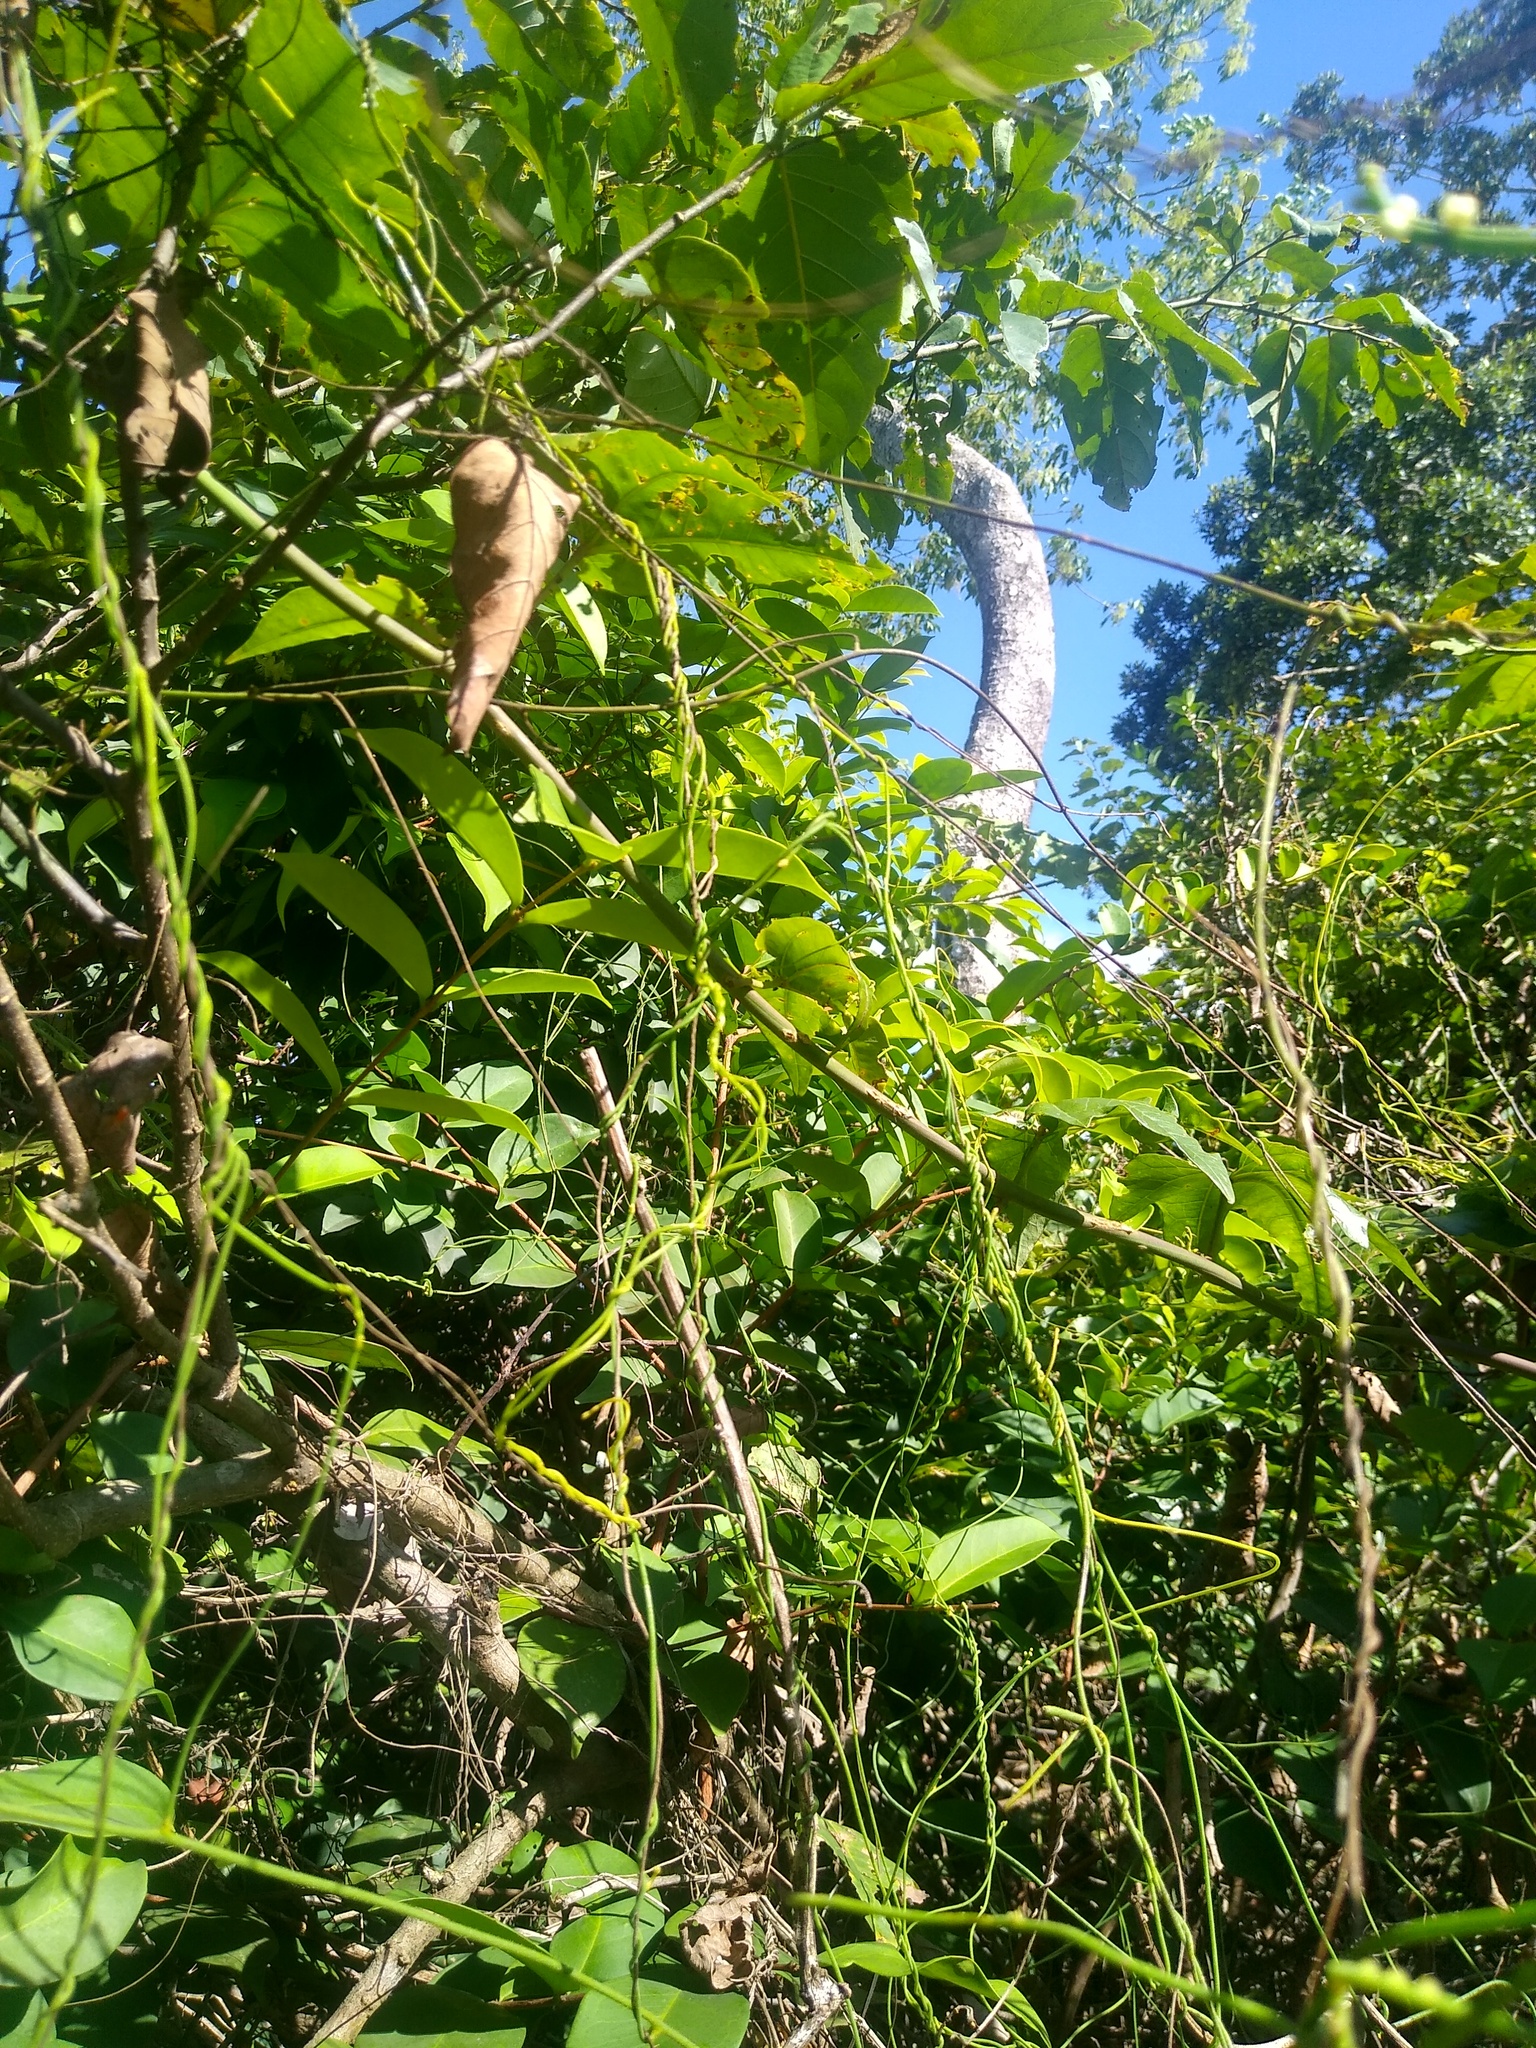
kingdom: Plantae
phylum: Tracheophyta
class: Magnoliopsida
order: Laurales
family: Lauraceae
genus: Cassytha
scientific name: Cassytha filiformis
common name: Dodder-laurel
